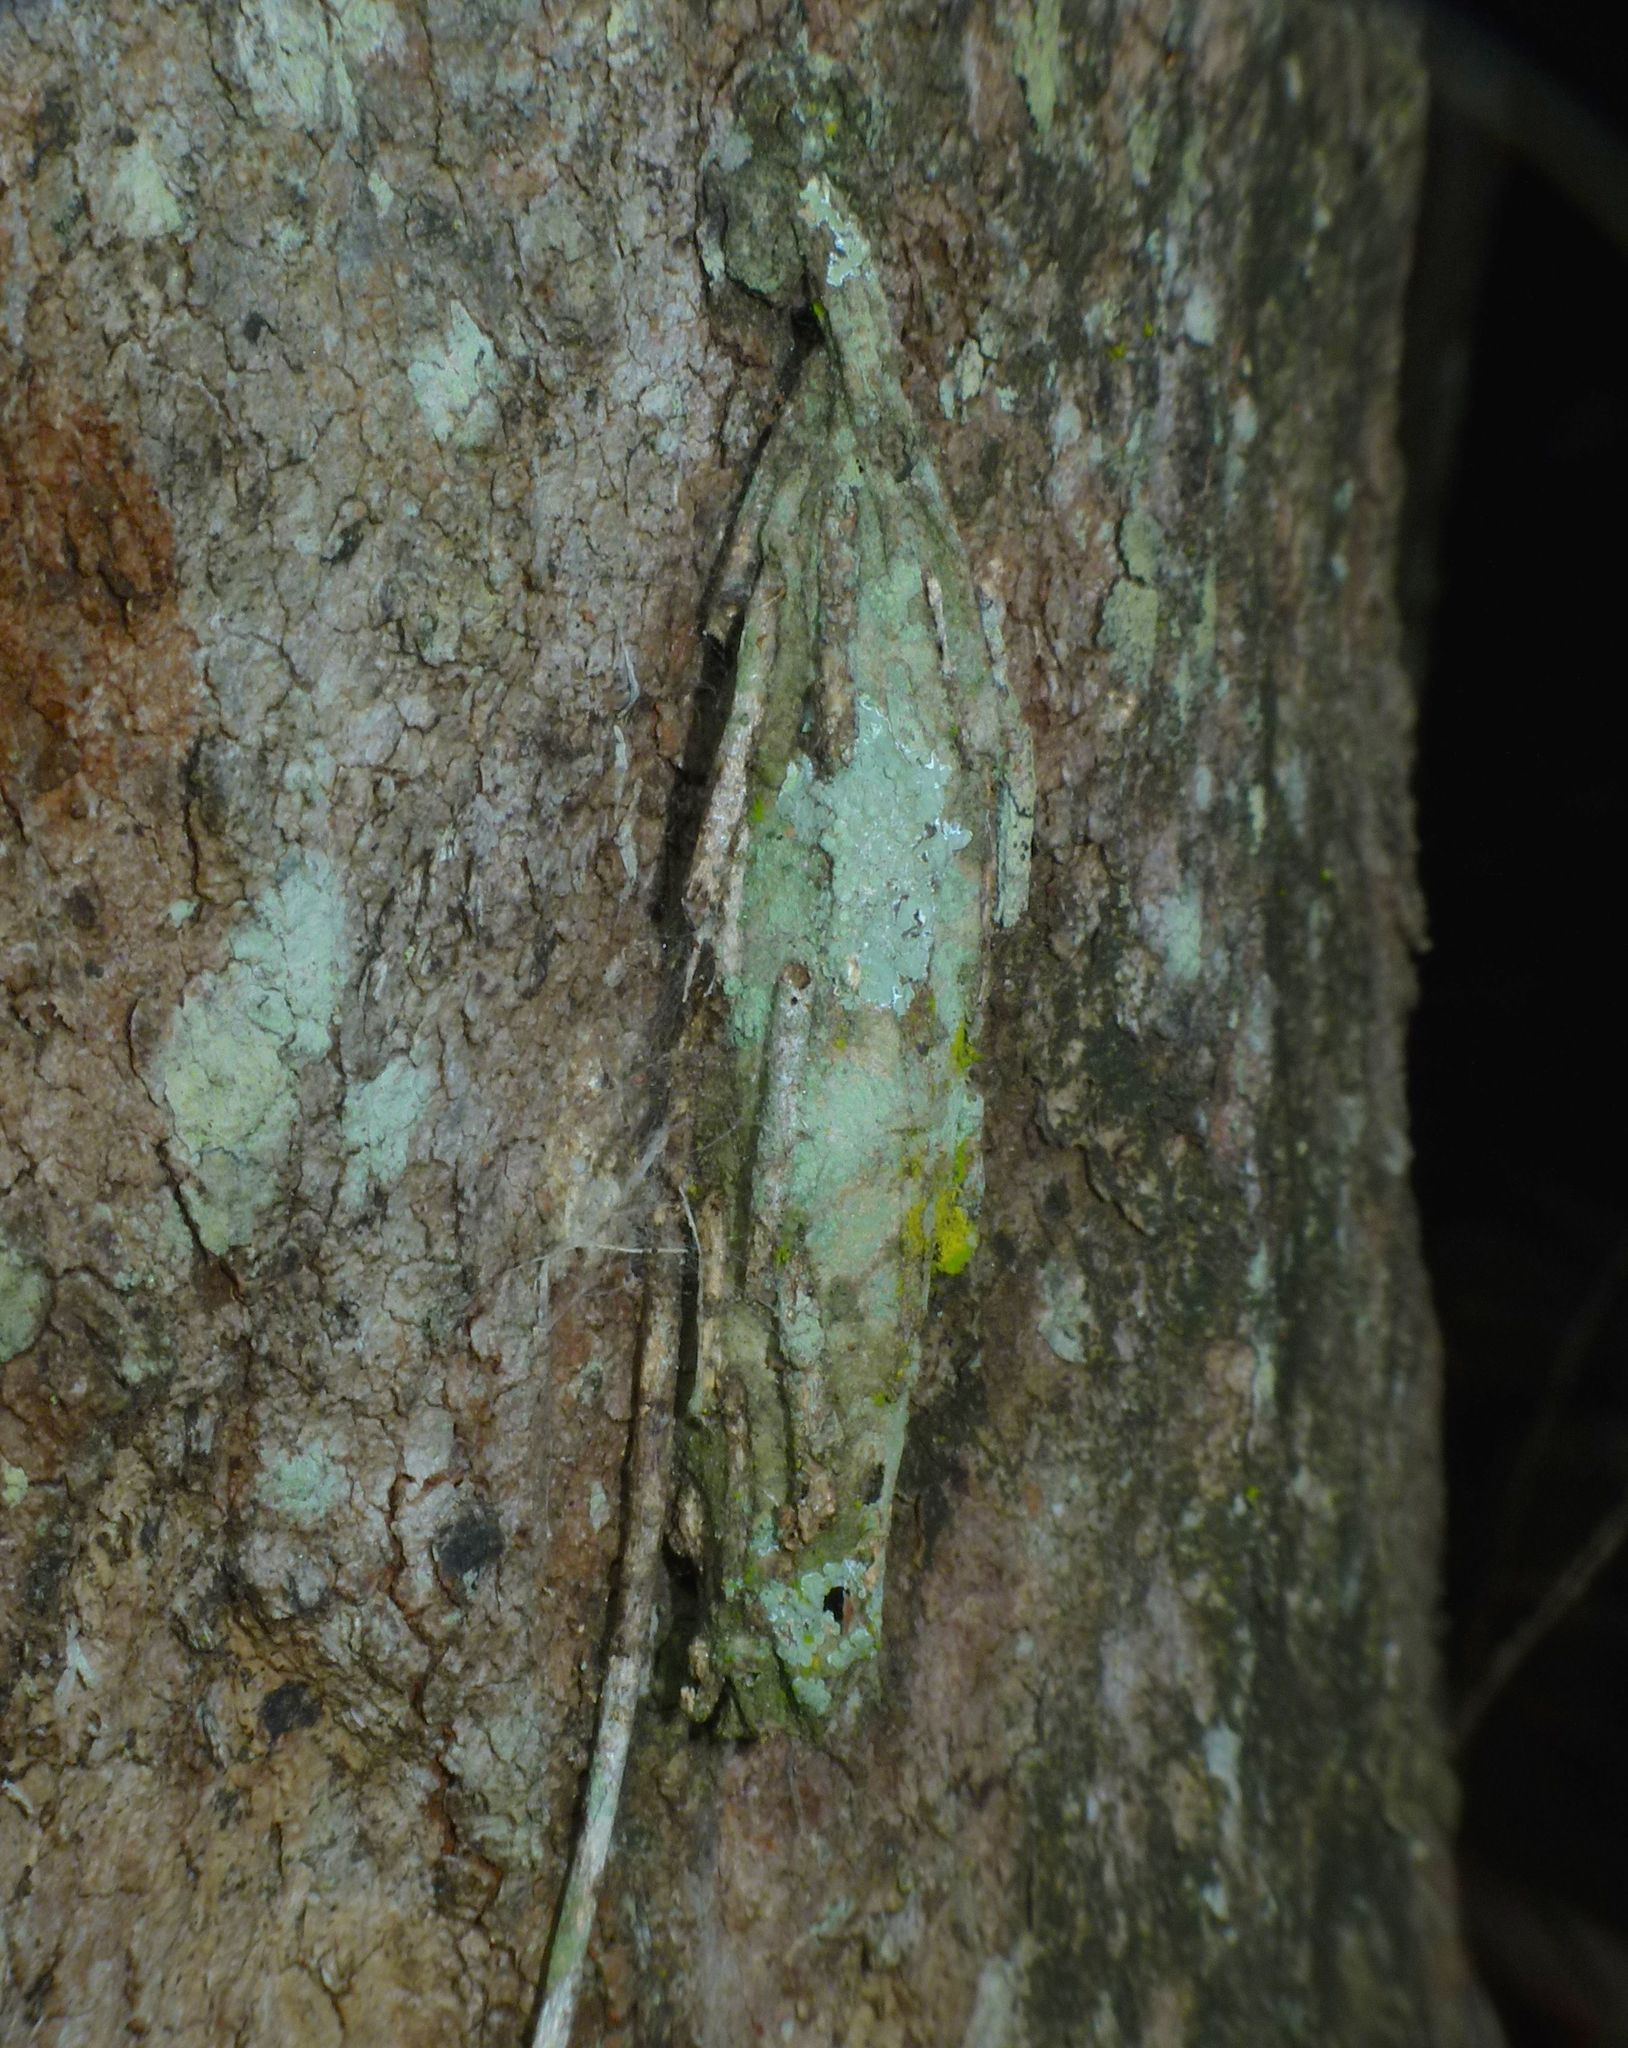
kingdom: Animalia
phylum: Arthropoda
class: Insecta
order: Lepidoptera
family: Psychidae
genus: Metura
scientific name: Metura elongatus
